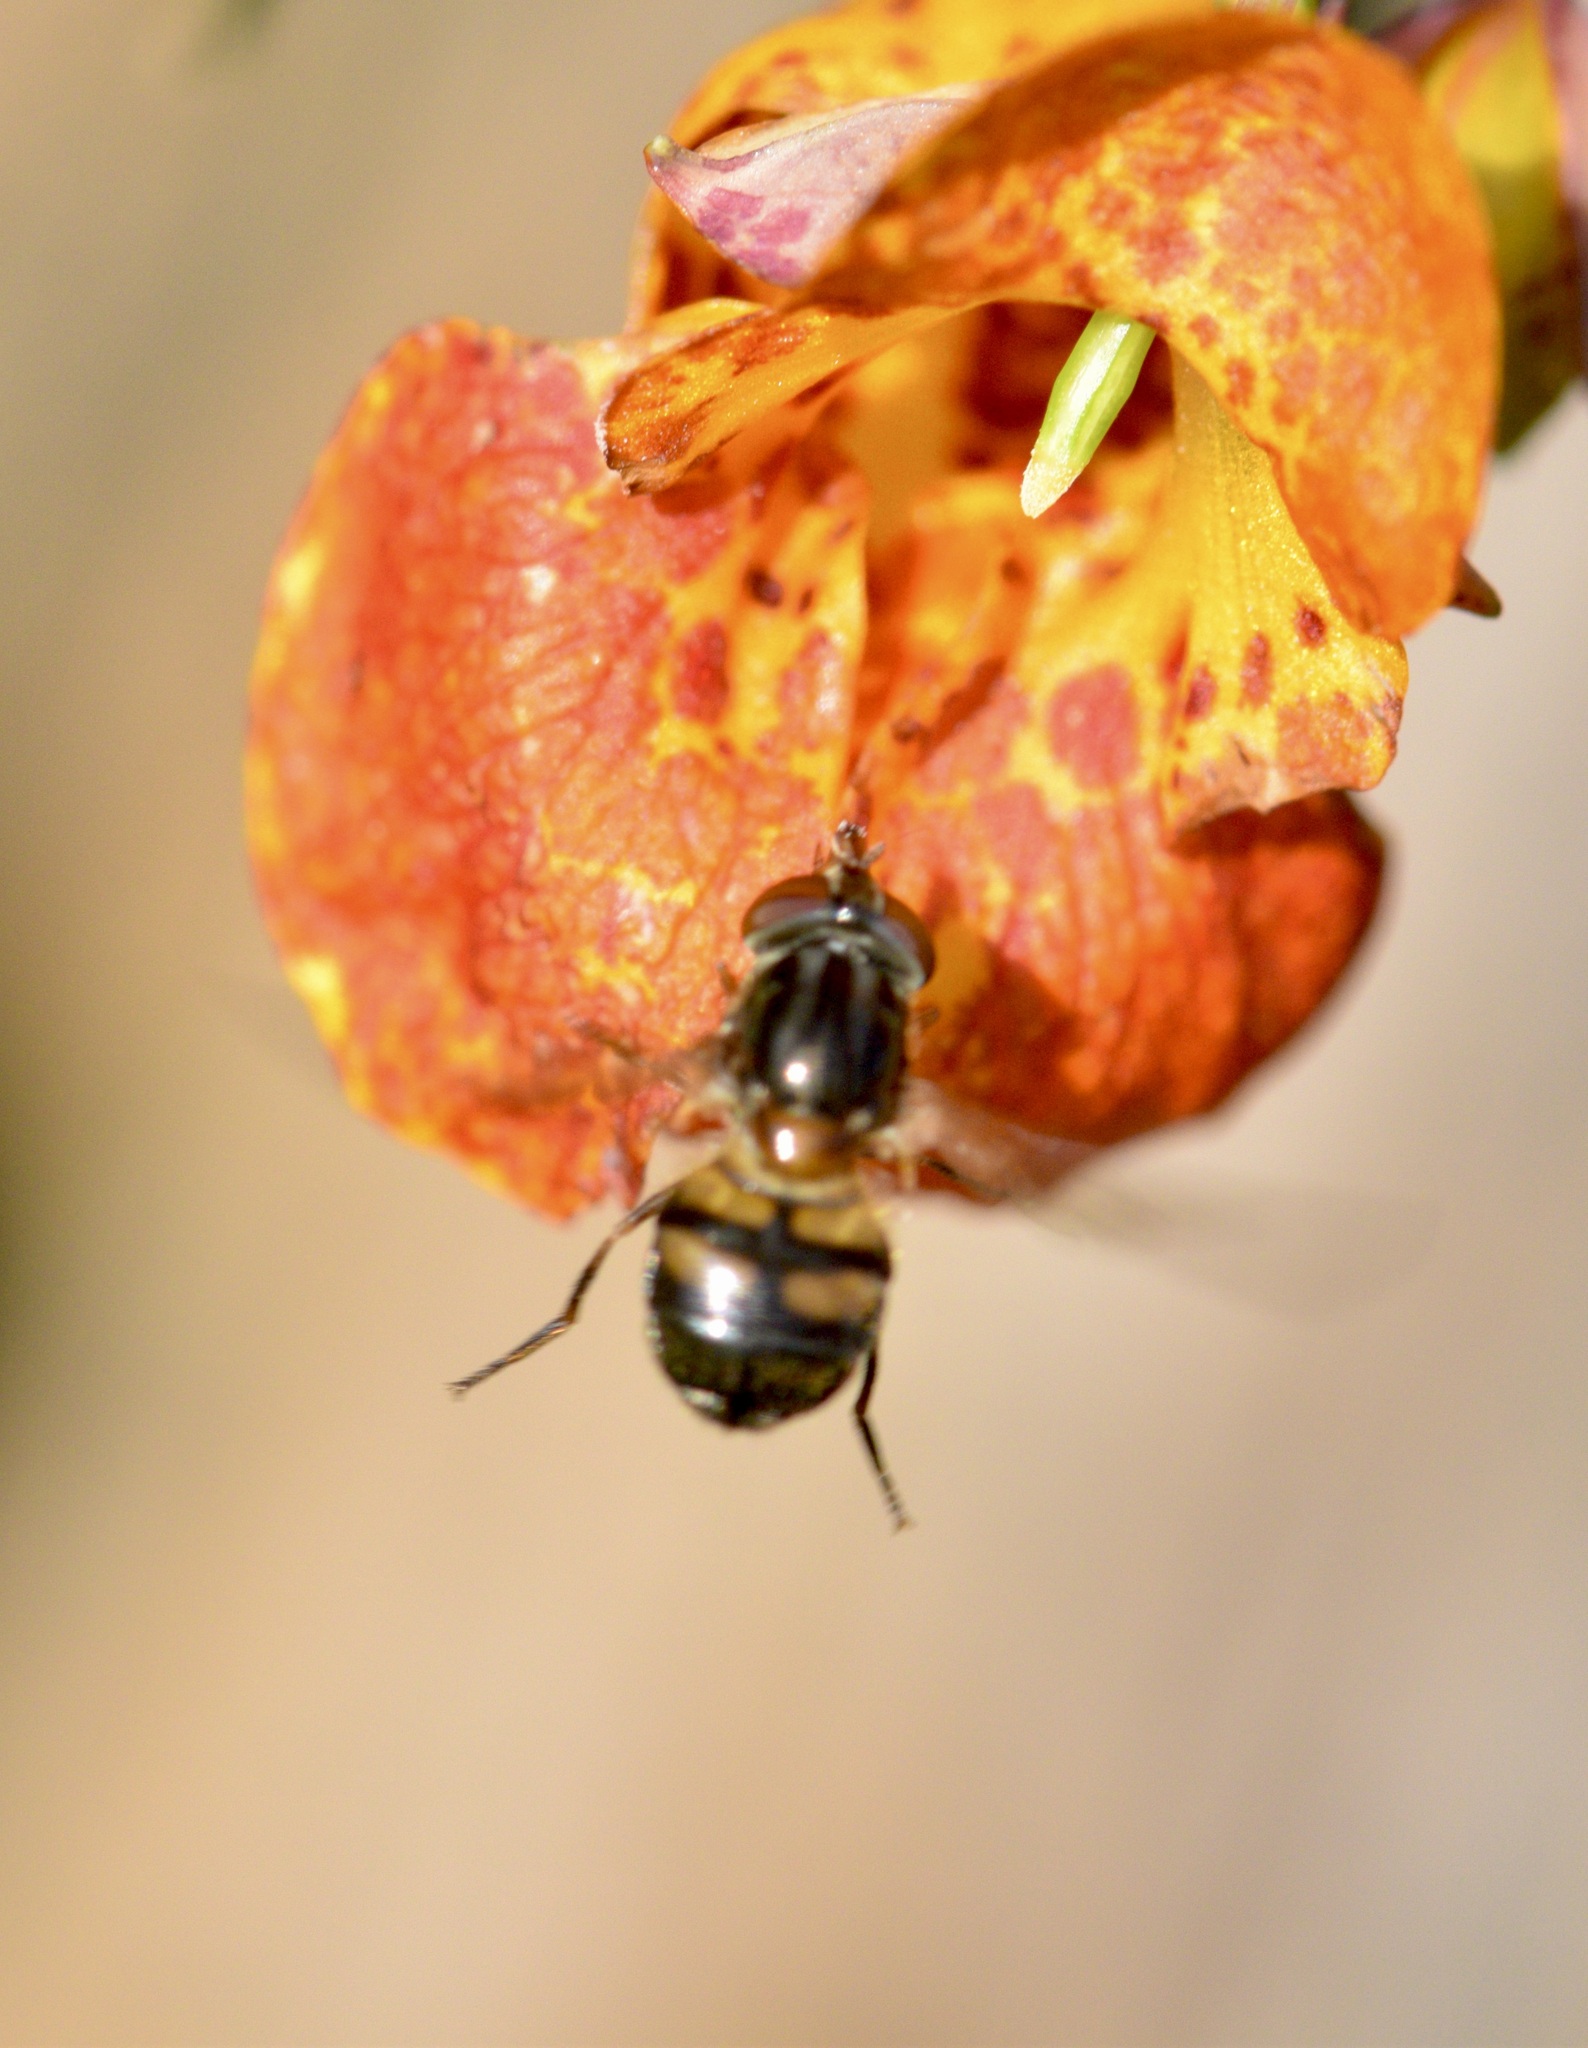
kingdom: Animalia
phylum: Arthropoda
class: Insecta
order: Diptera
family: Syrphidae
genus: Rhingia
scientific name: Rhingia nasica
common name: American snout fly
